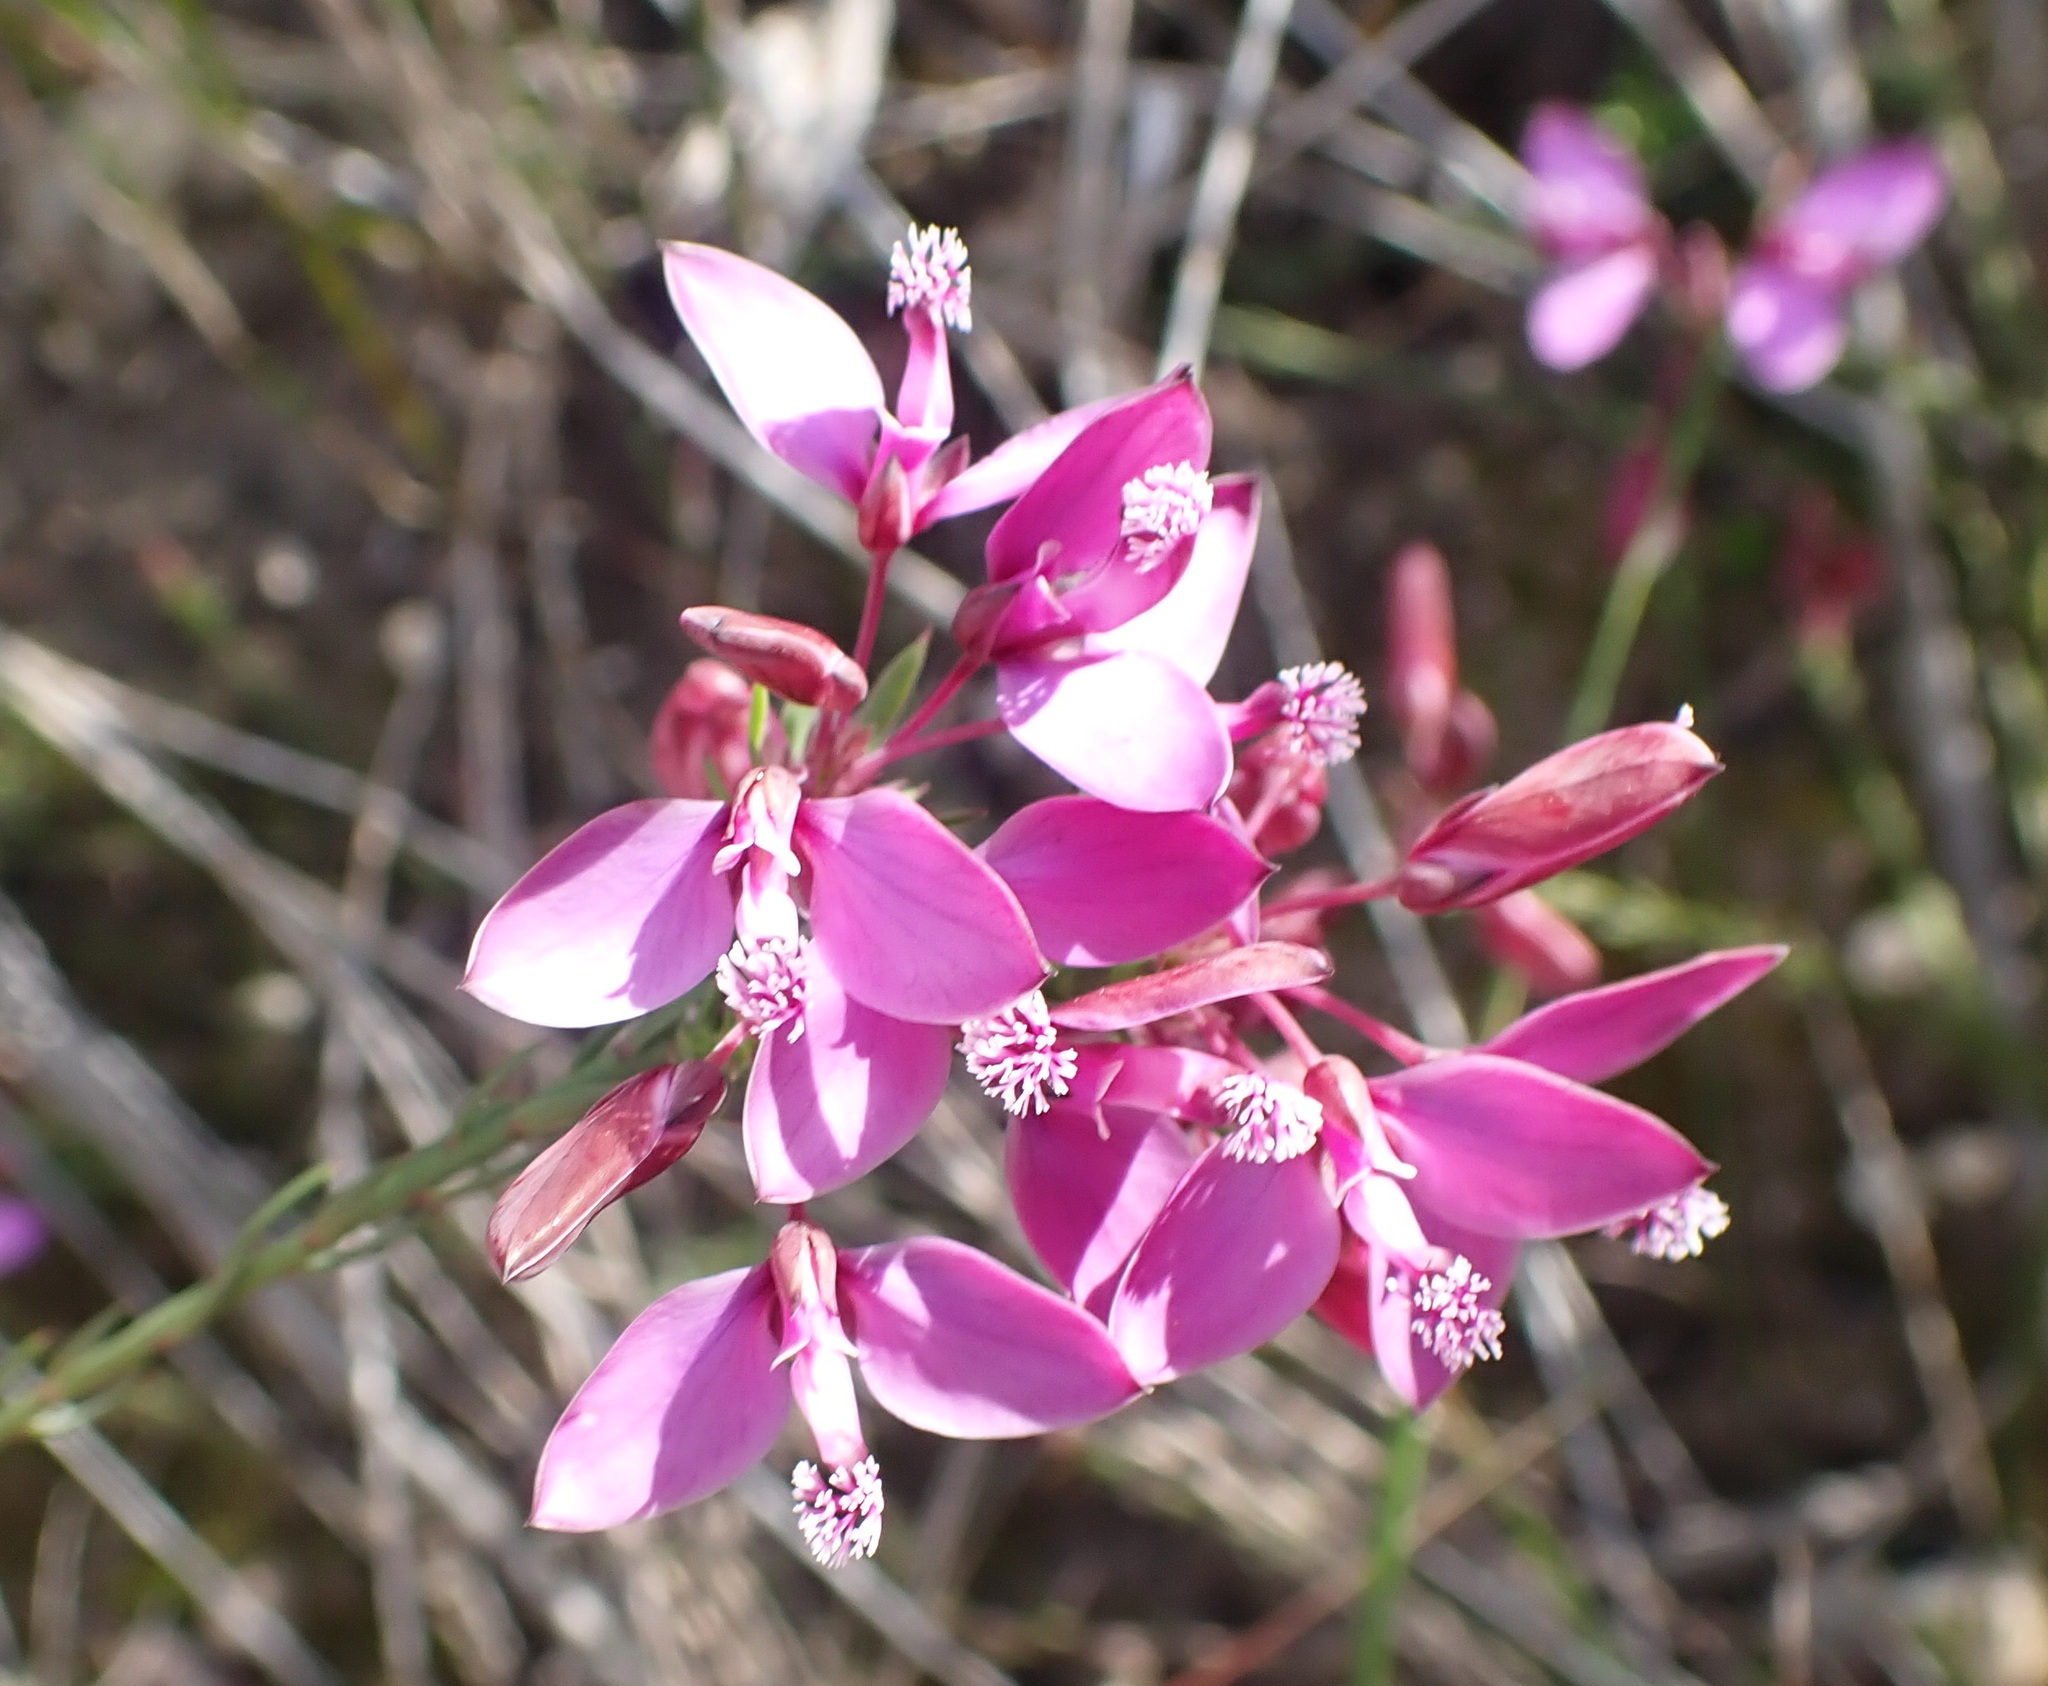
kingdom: Plantae
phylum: Tracheophyta
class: Magnoliopsida
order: Fabales
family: Polygalaceae
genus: Polygala
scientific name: Polygala ericifolia
